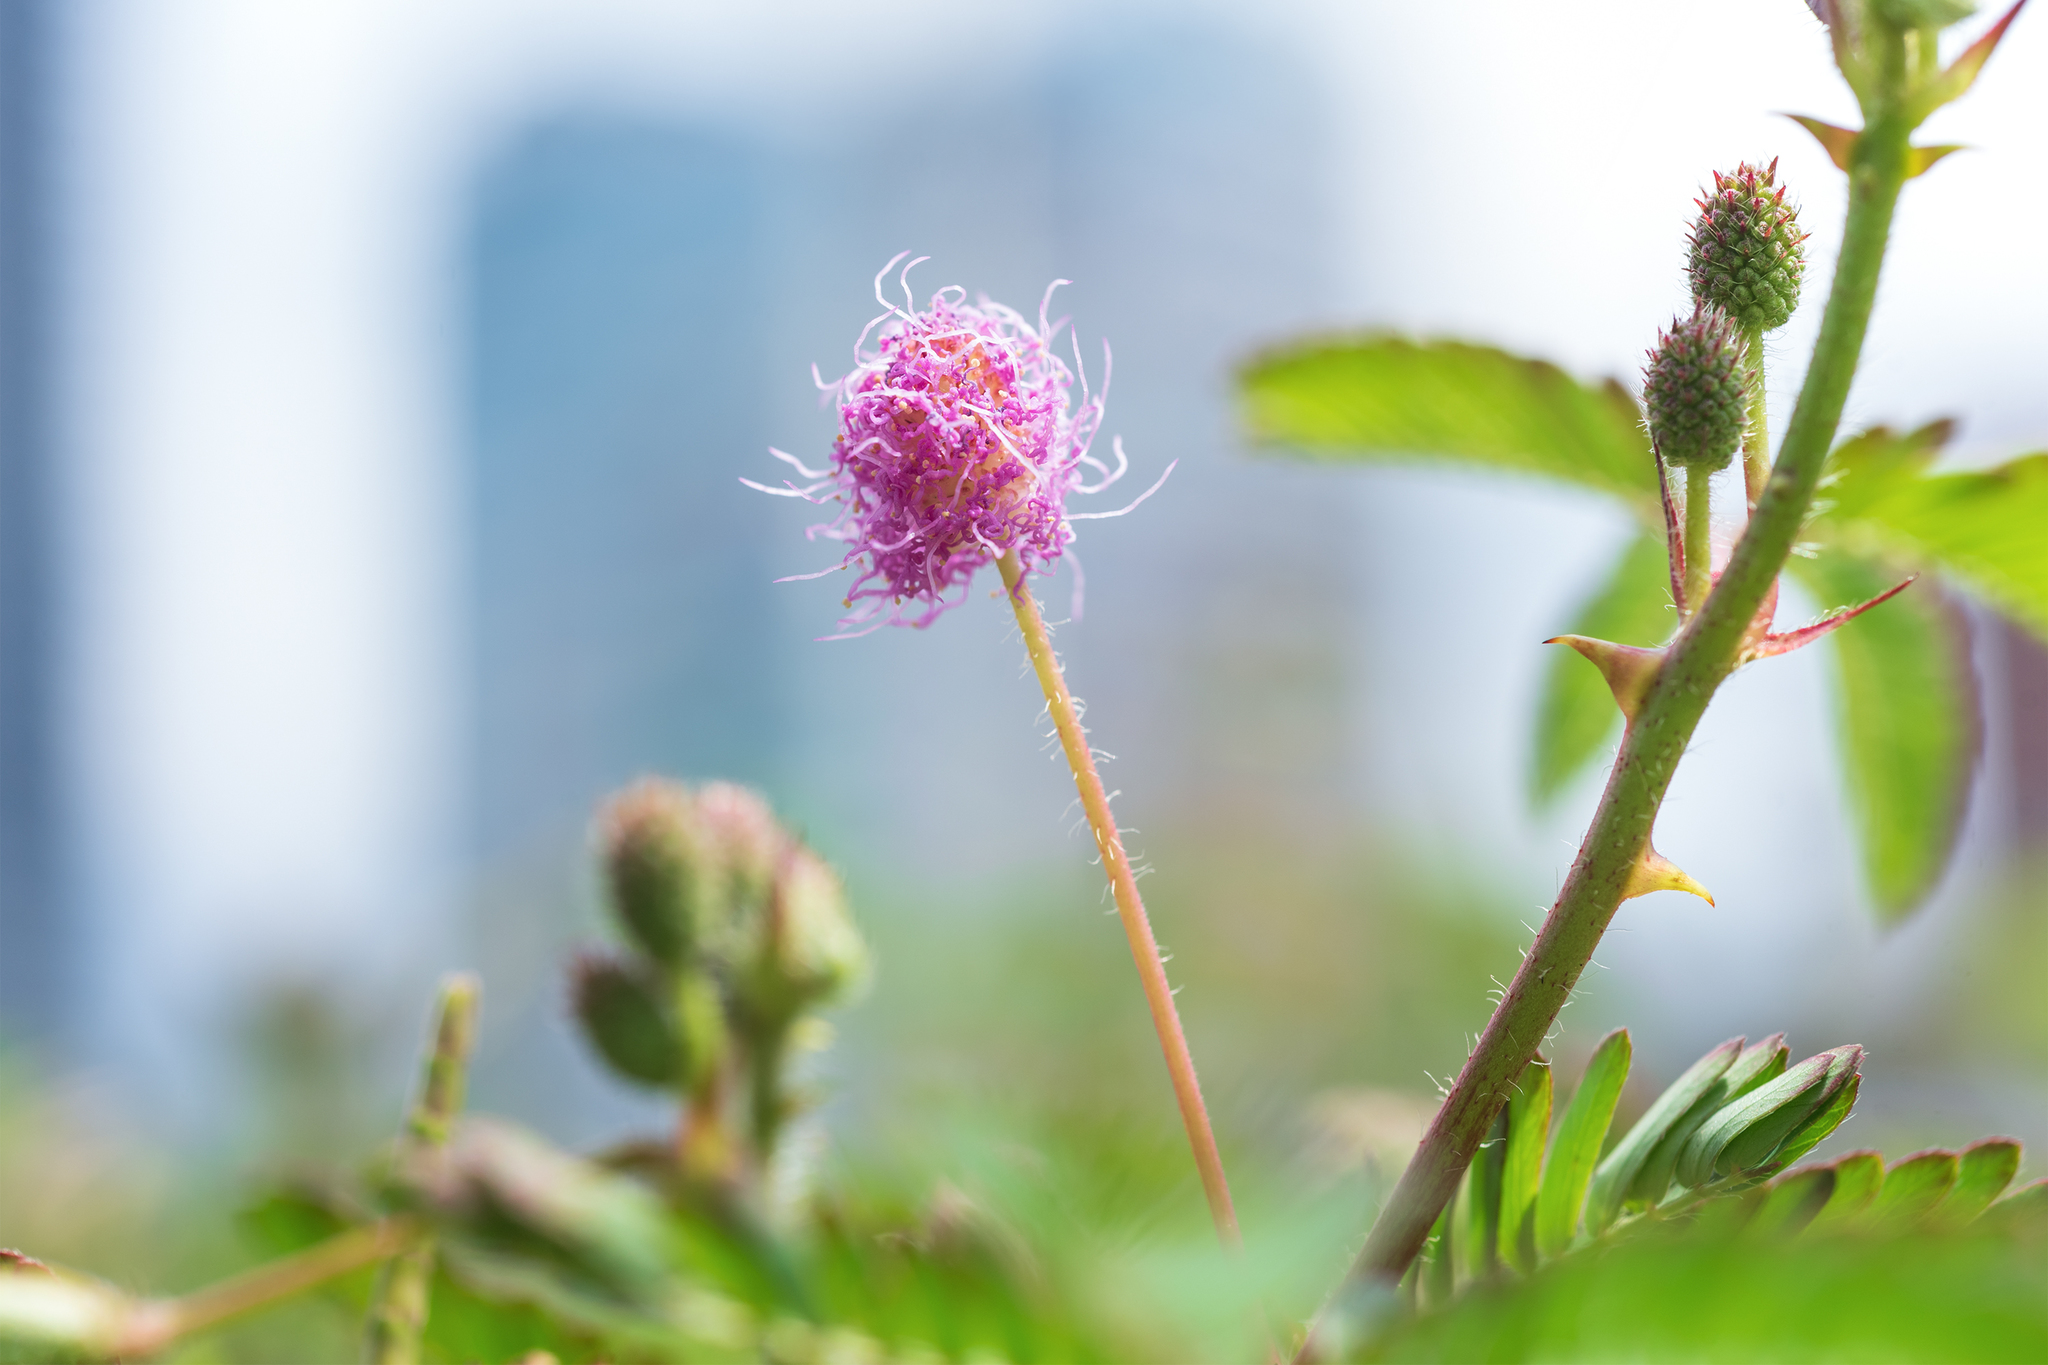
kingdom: Plantae
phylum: Tracheophyta
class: Magnoliopsida
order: Fabales
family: Fabaceae
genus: Mimosa
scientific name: Mimosa pudica
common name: Sensitive plant
